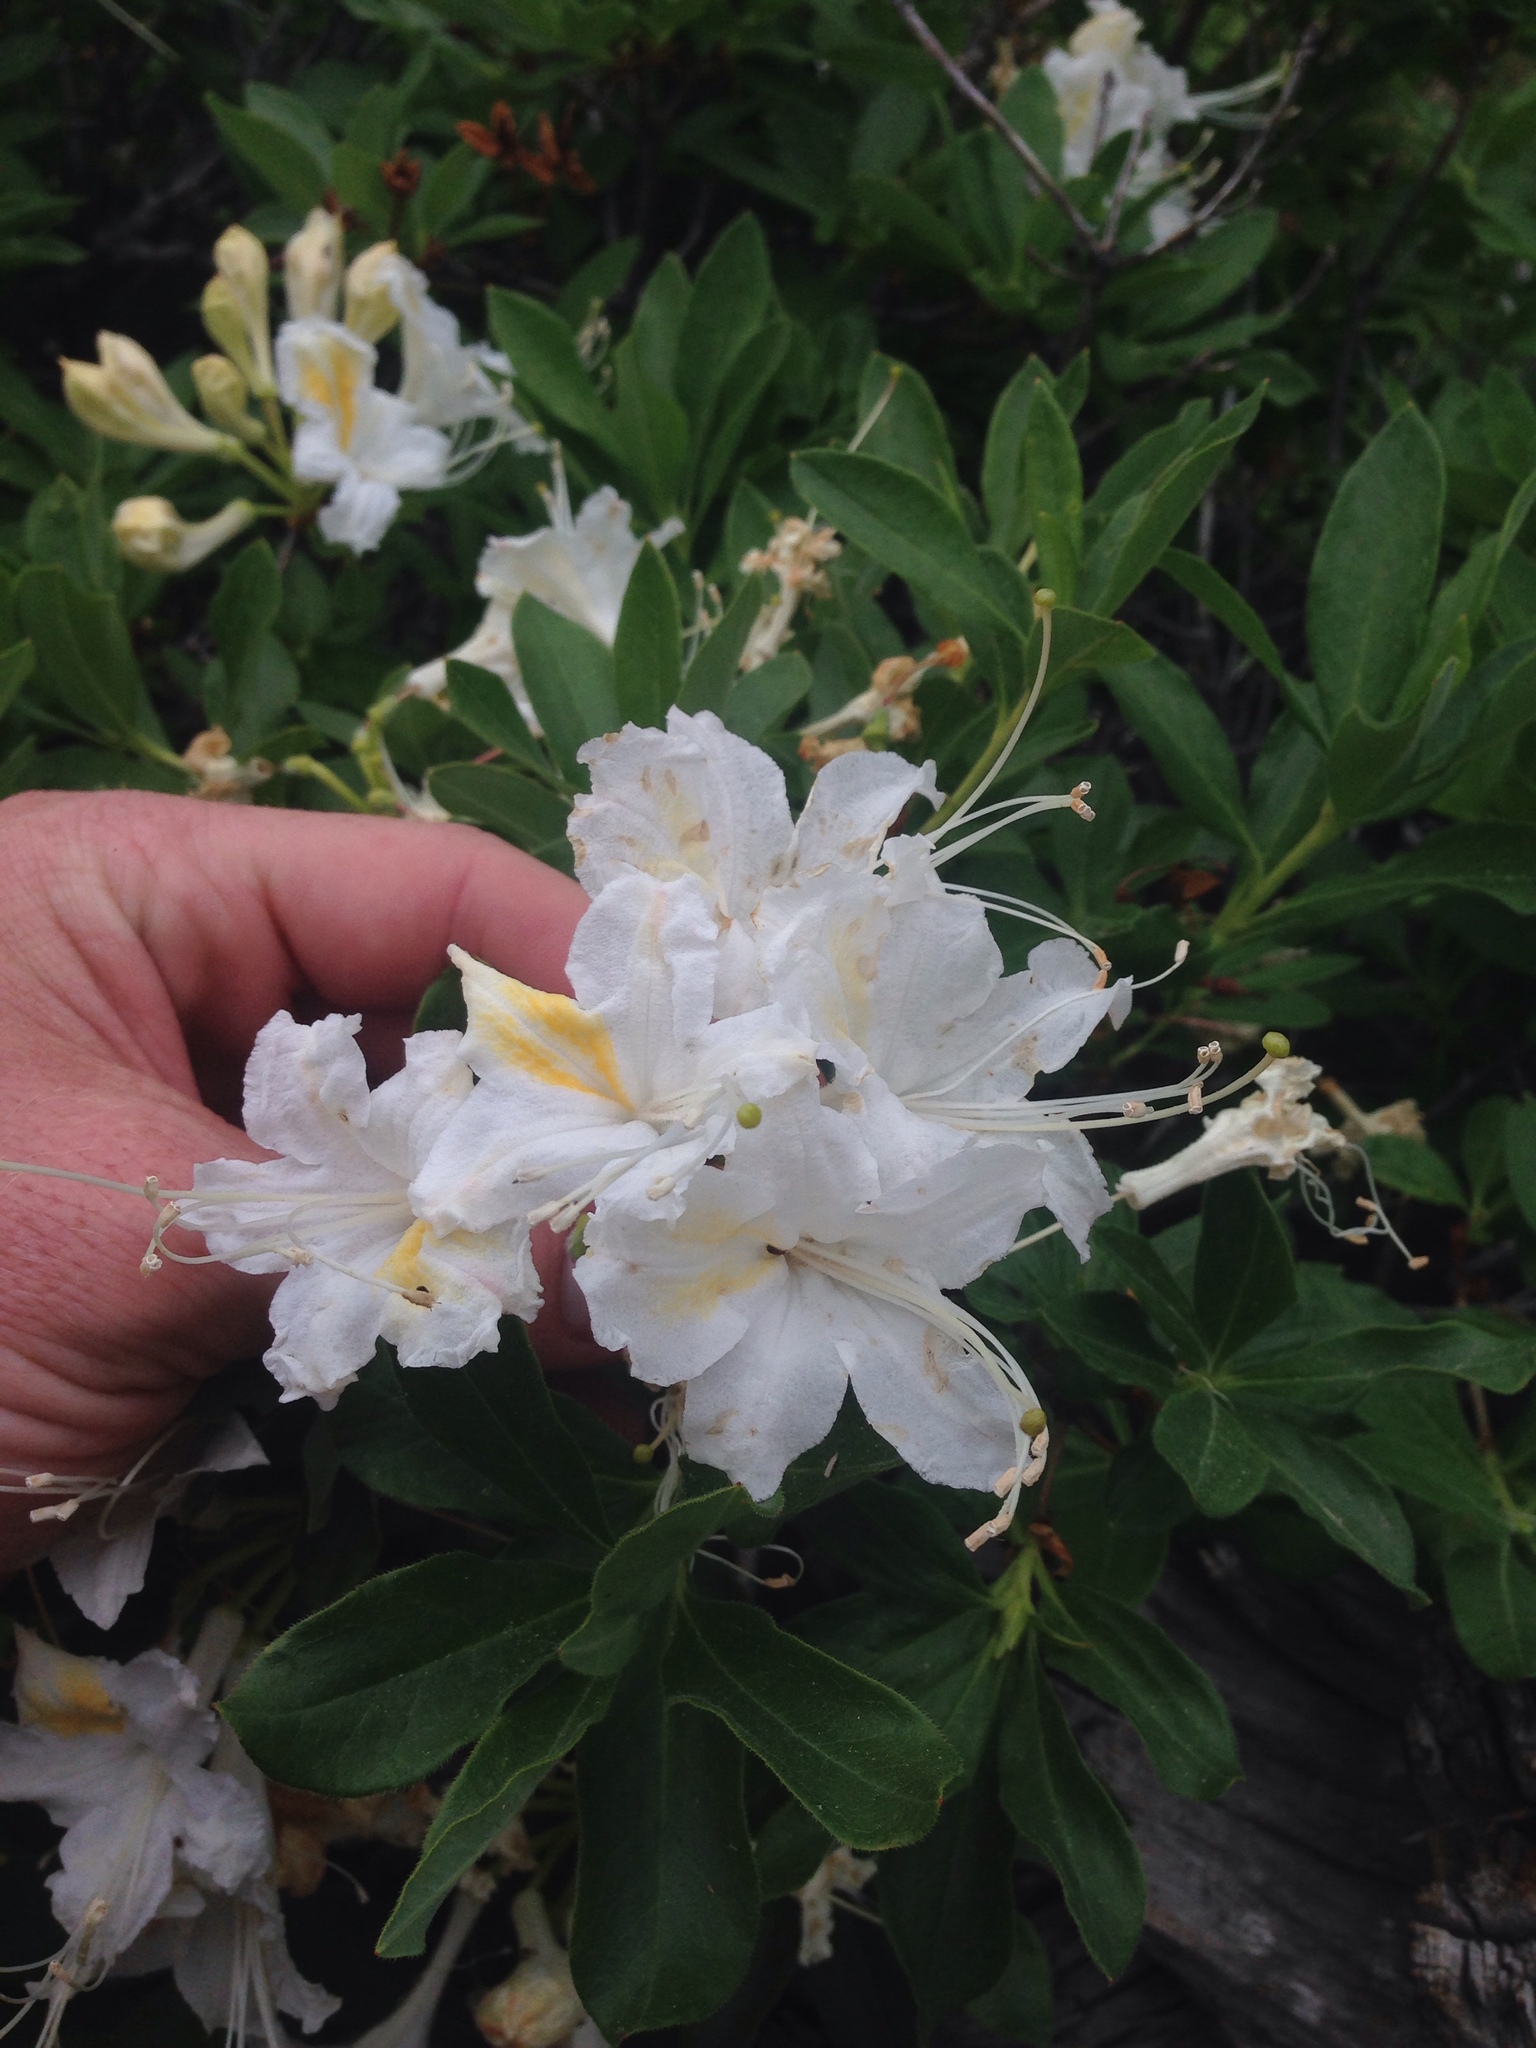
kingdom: Plantae
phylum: Tracheophyta
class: Magnoliopsida
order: Ericales
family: Ericaceae
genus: Rhododendron
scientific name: Rhododendron occidentale
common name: Western azalea
